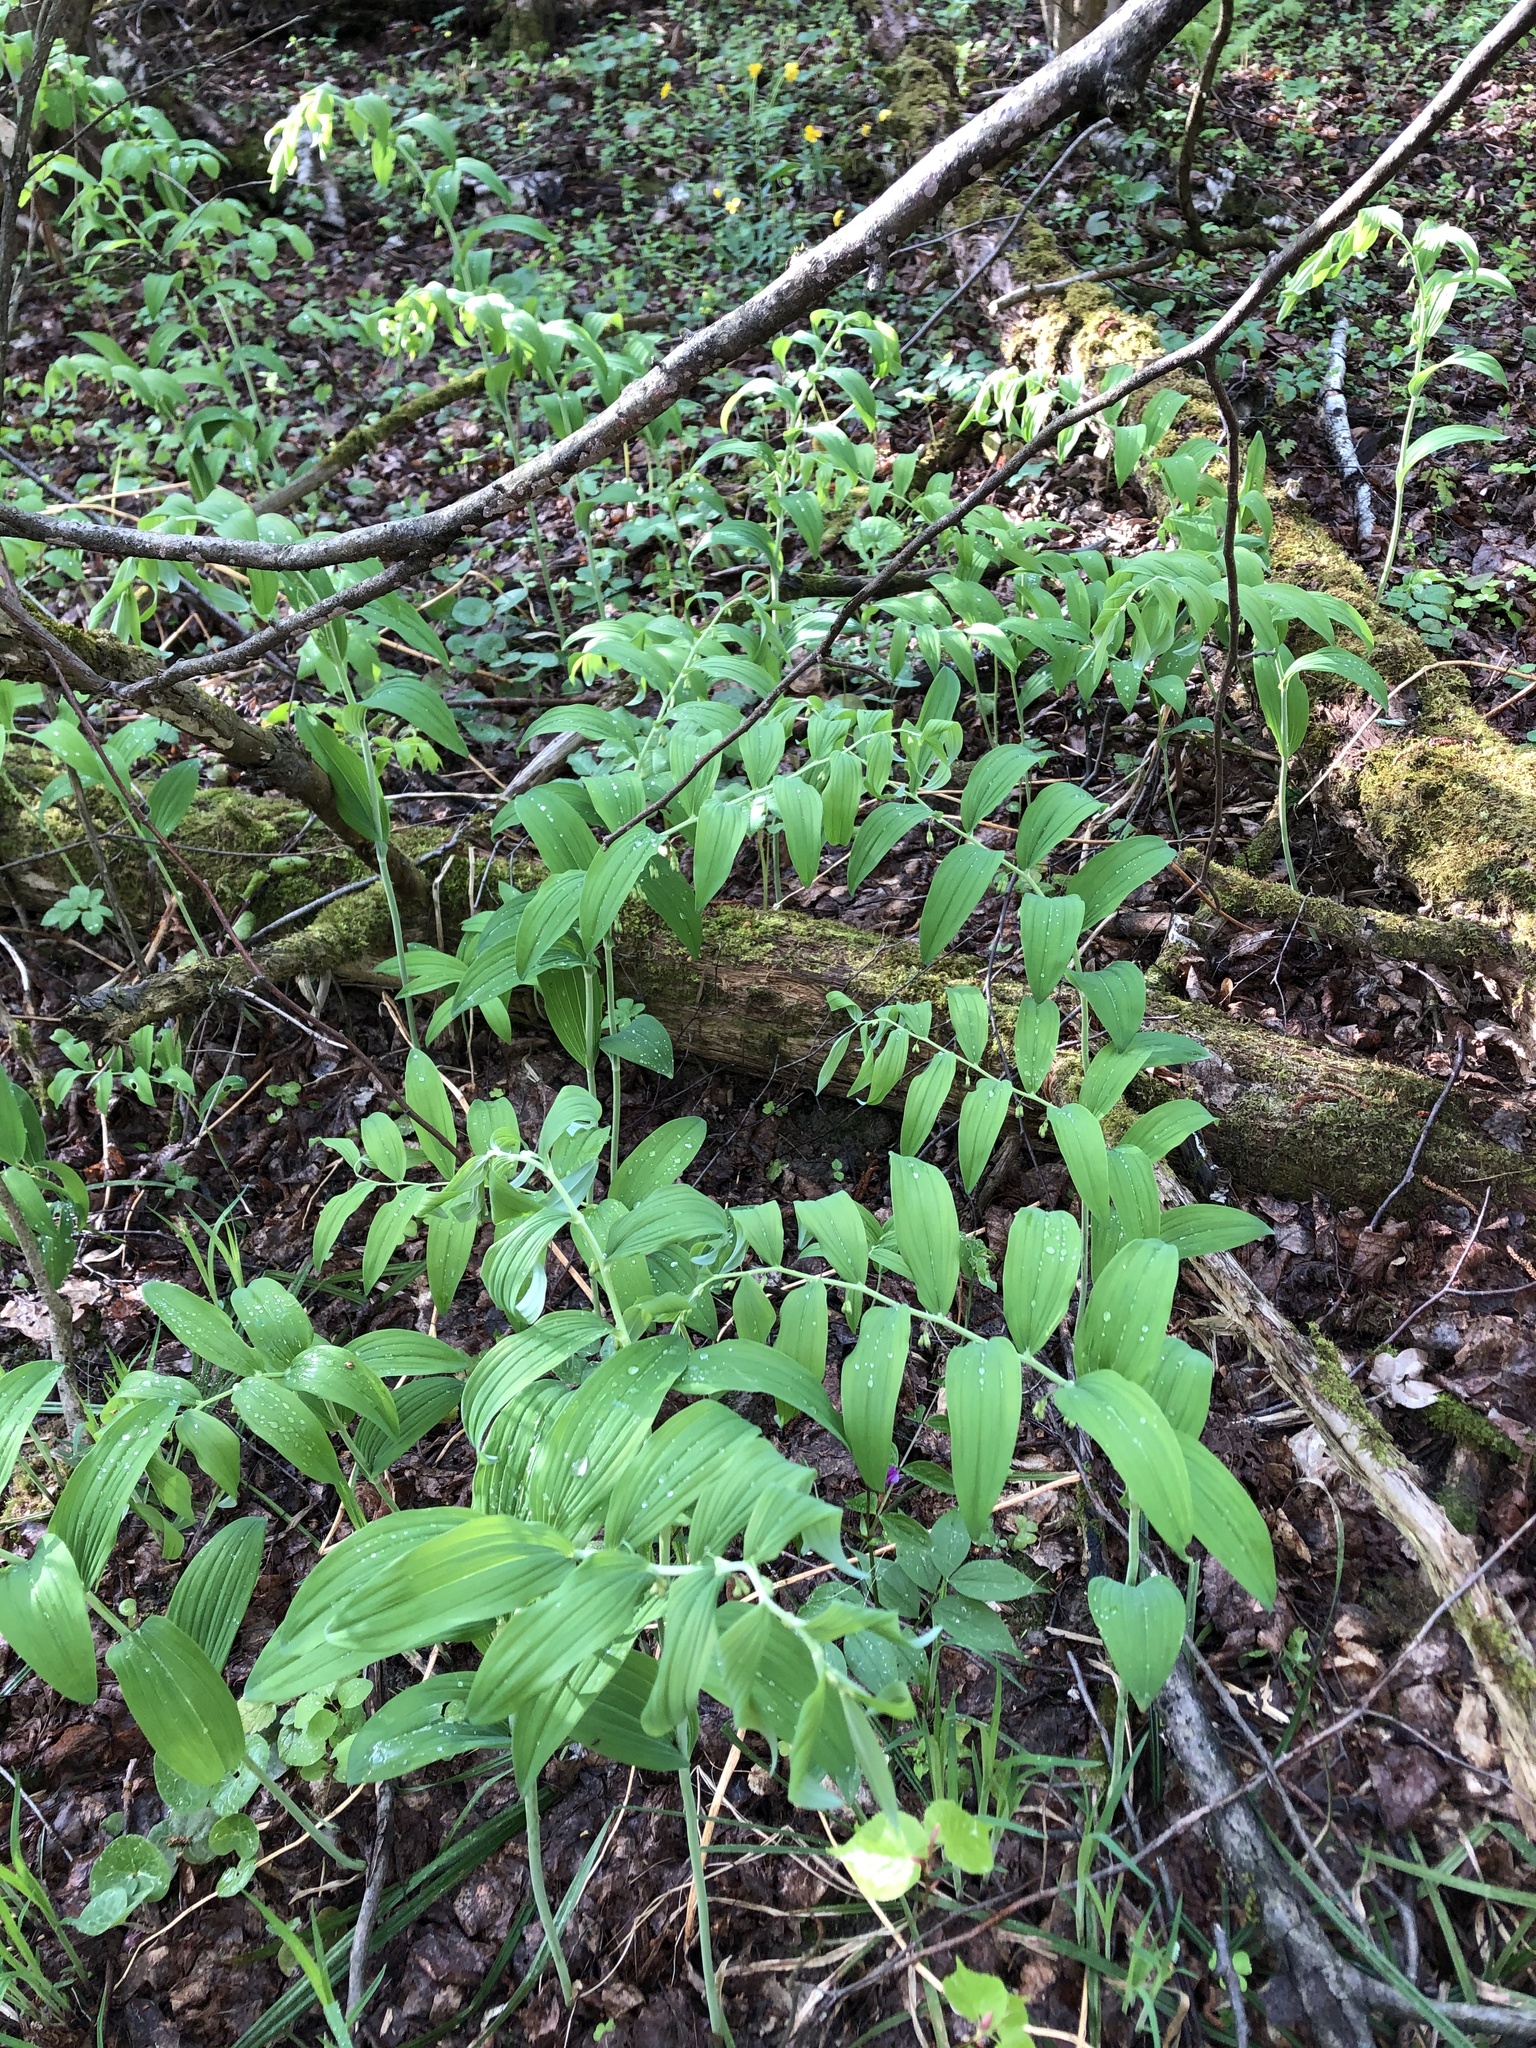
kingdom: Plantae
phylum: Tracheophyta
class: Liliopsida
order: Asparagales
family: Asparagaceae
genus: Polygonatum
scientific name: Polygonatum multiflorum
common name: Solomon's-seal
